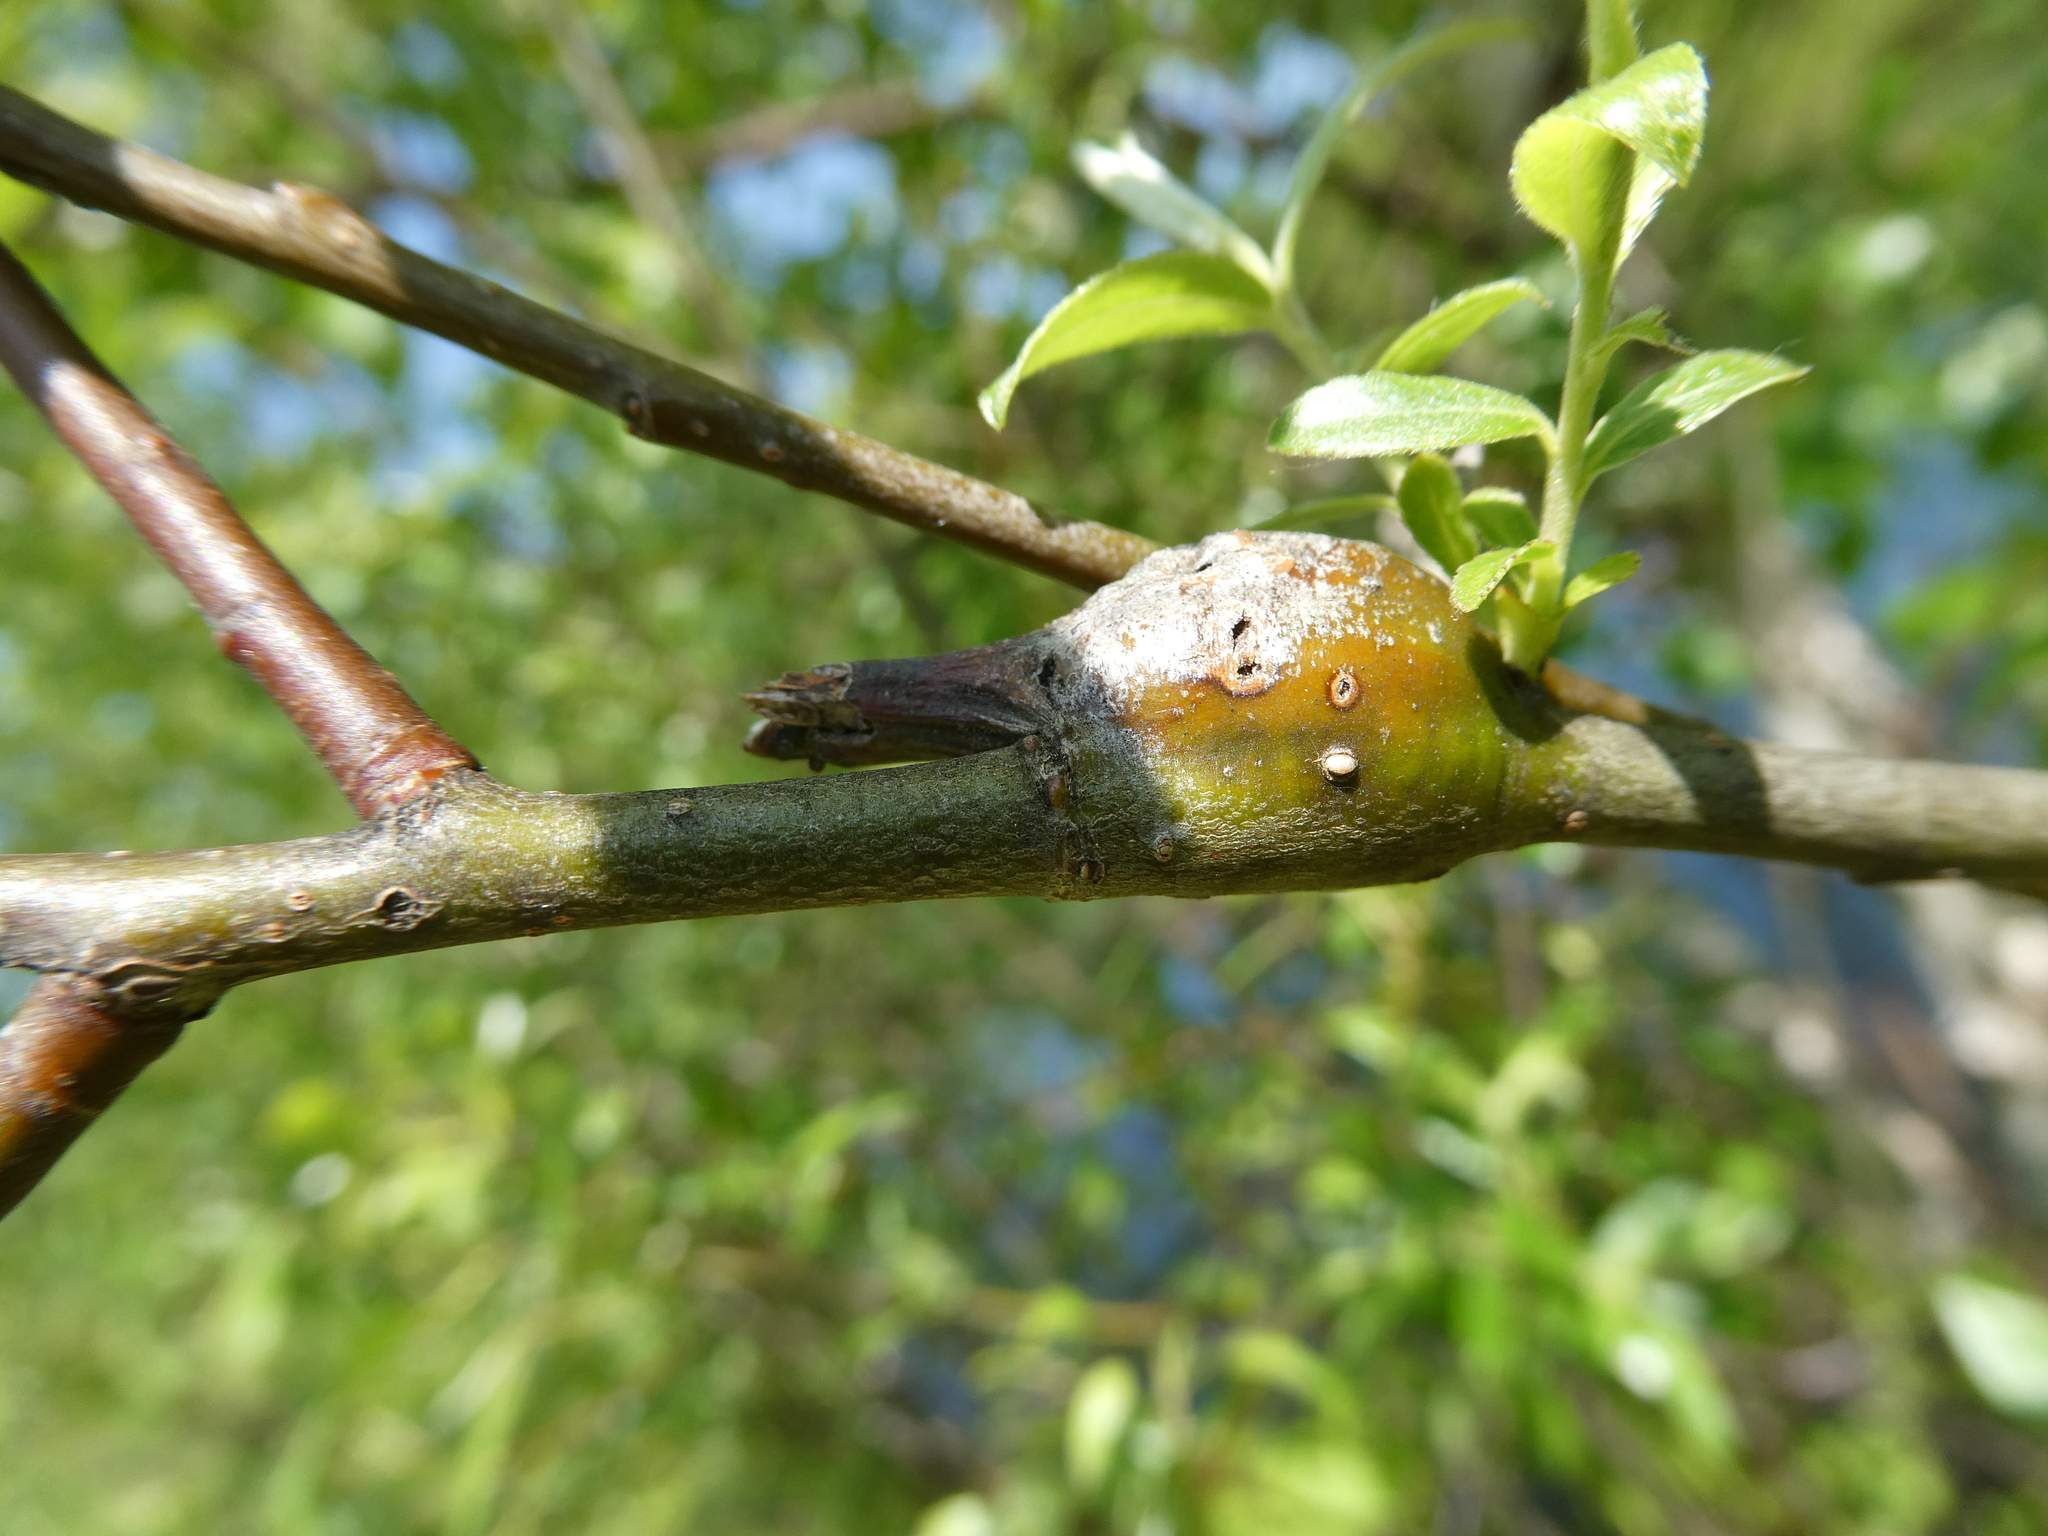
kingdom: Animalia
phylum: Arthropoda
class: Insecta
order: Diptera
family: Cecidomyiidae
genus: Thecodiplosis
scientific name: Thecodiplosis pinirigidae
